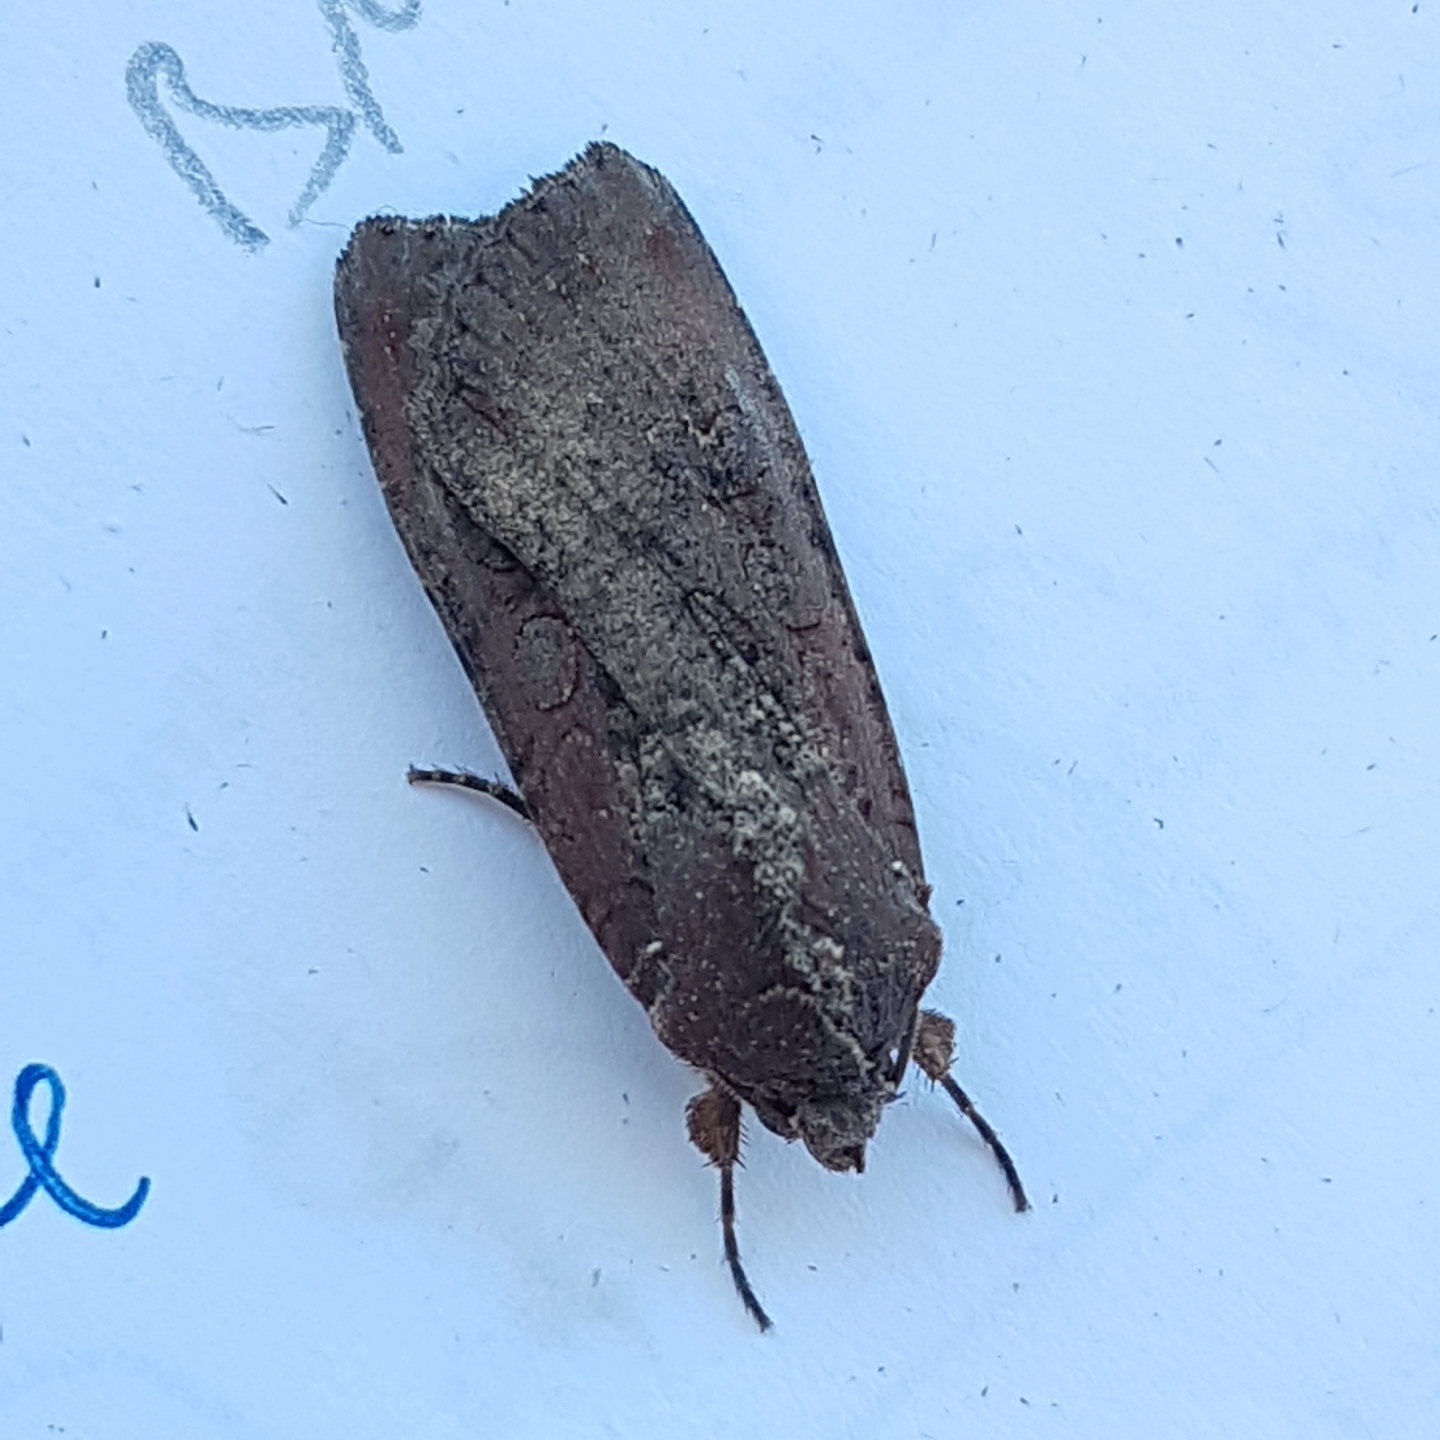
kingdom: Animalia
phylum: Arthropoda
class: Insecta
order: Lepidoptera
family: Noctuidae
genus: Peridroma
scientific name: Peridroma saucia
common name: Pearly underwing
